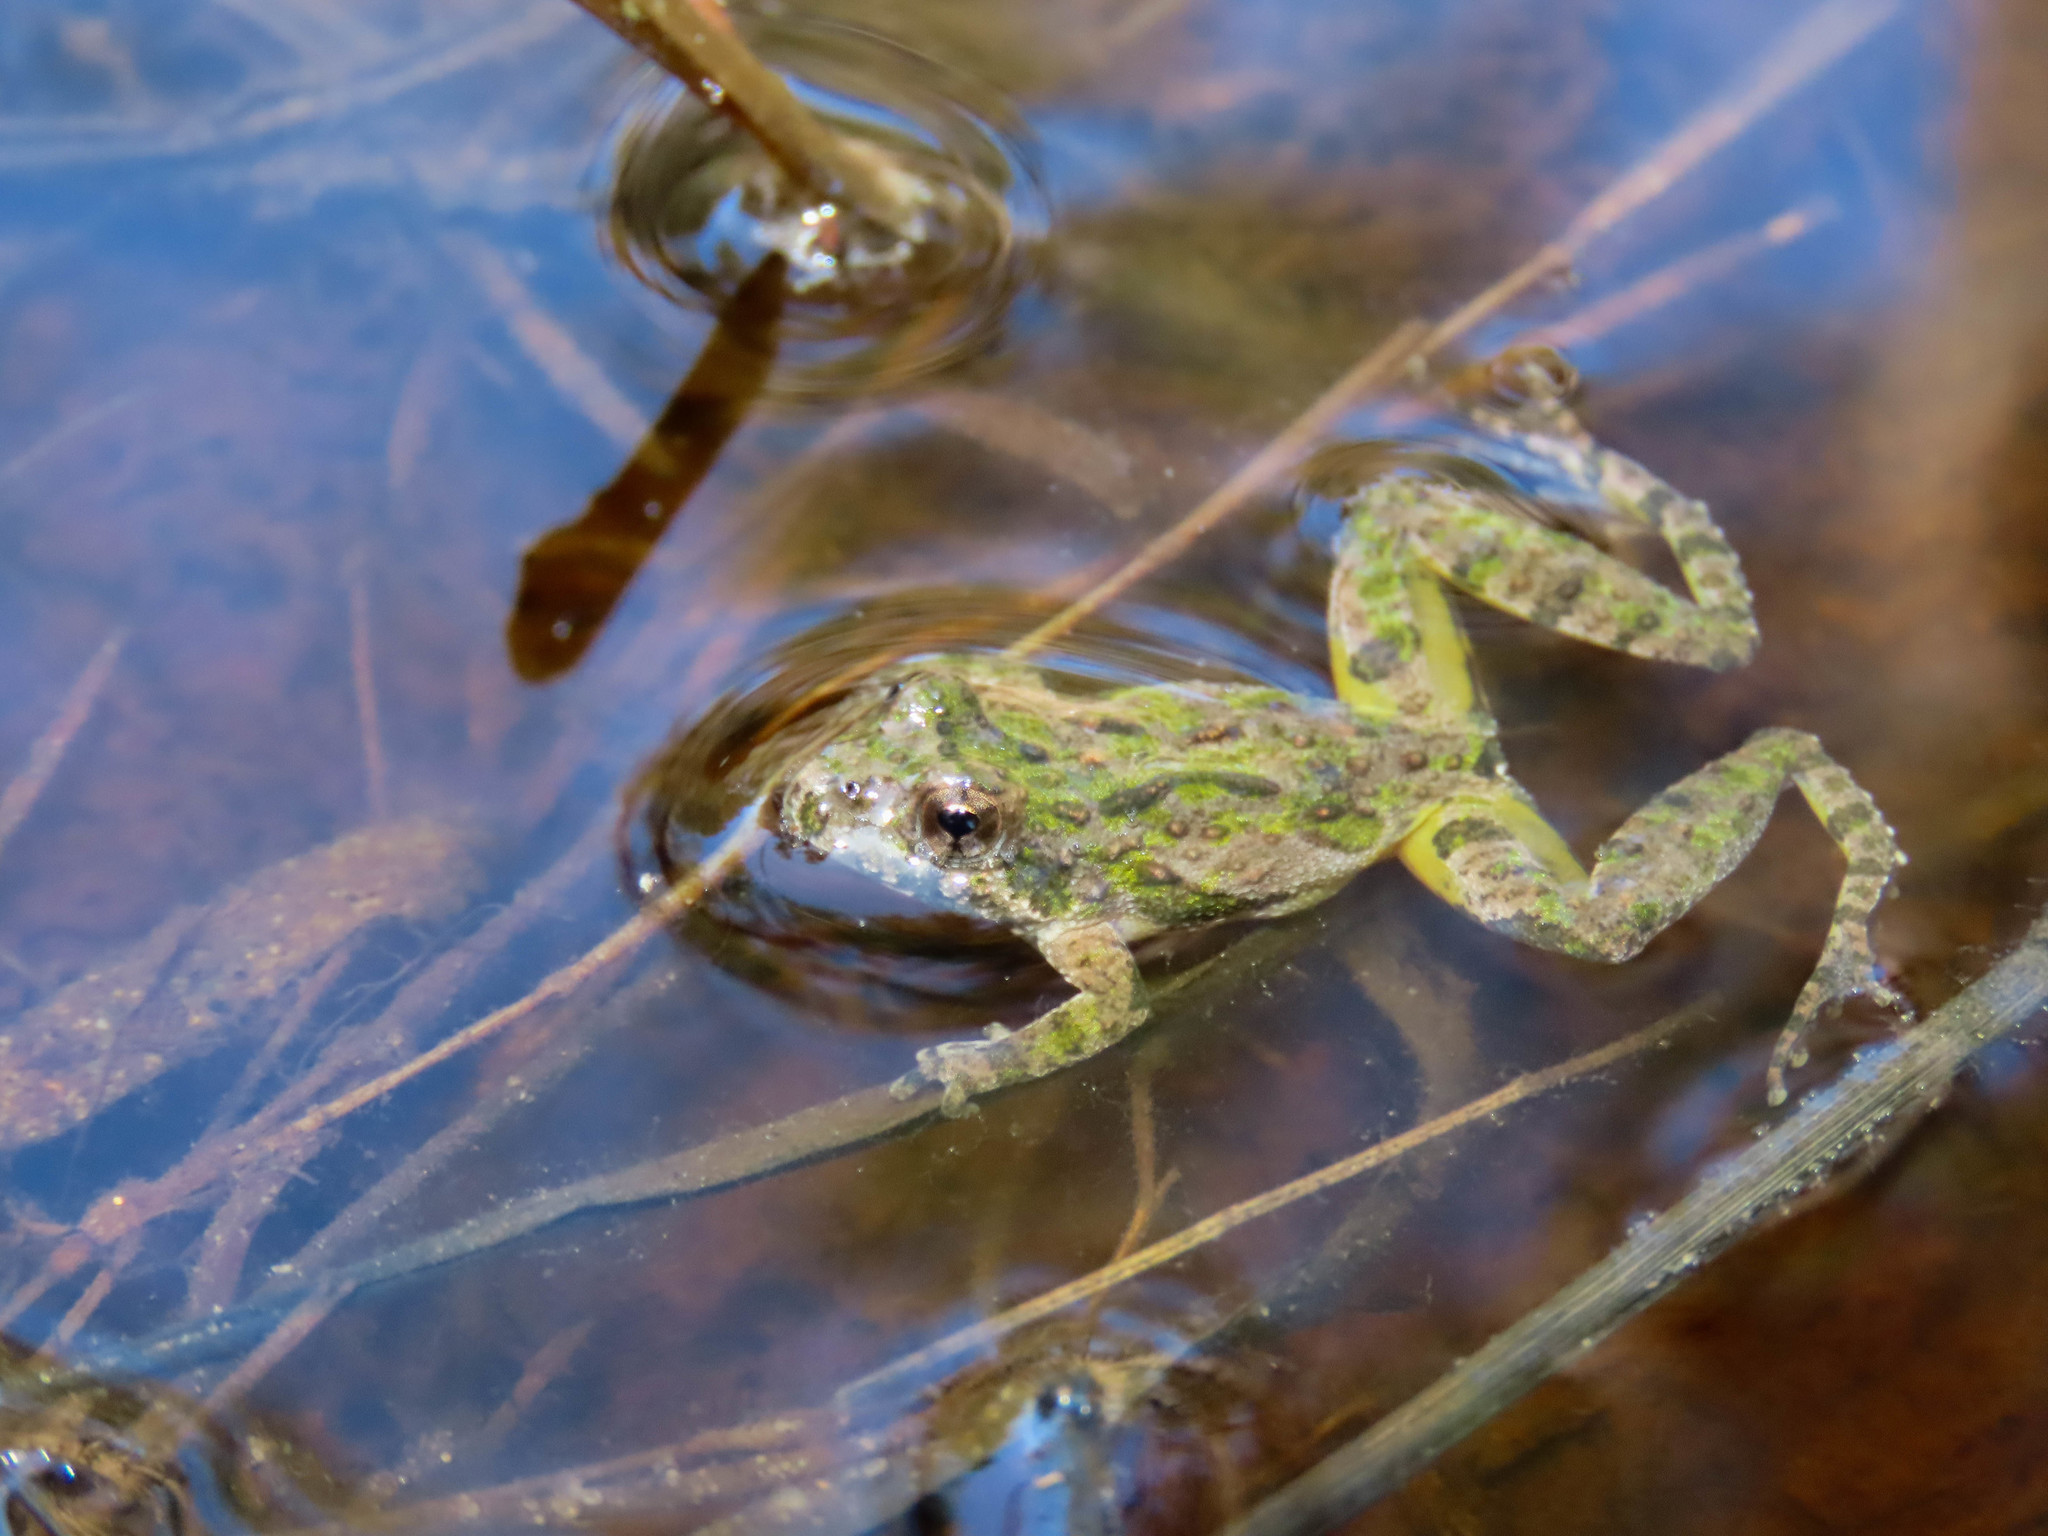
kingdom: Animalia
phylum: Chordata
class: Amphibia
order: Anura
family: Hylidae
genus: Acris
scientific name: Acris crepitans
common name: Northern cricket frog
